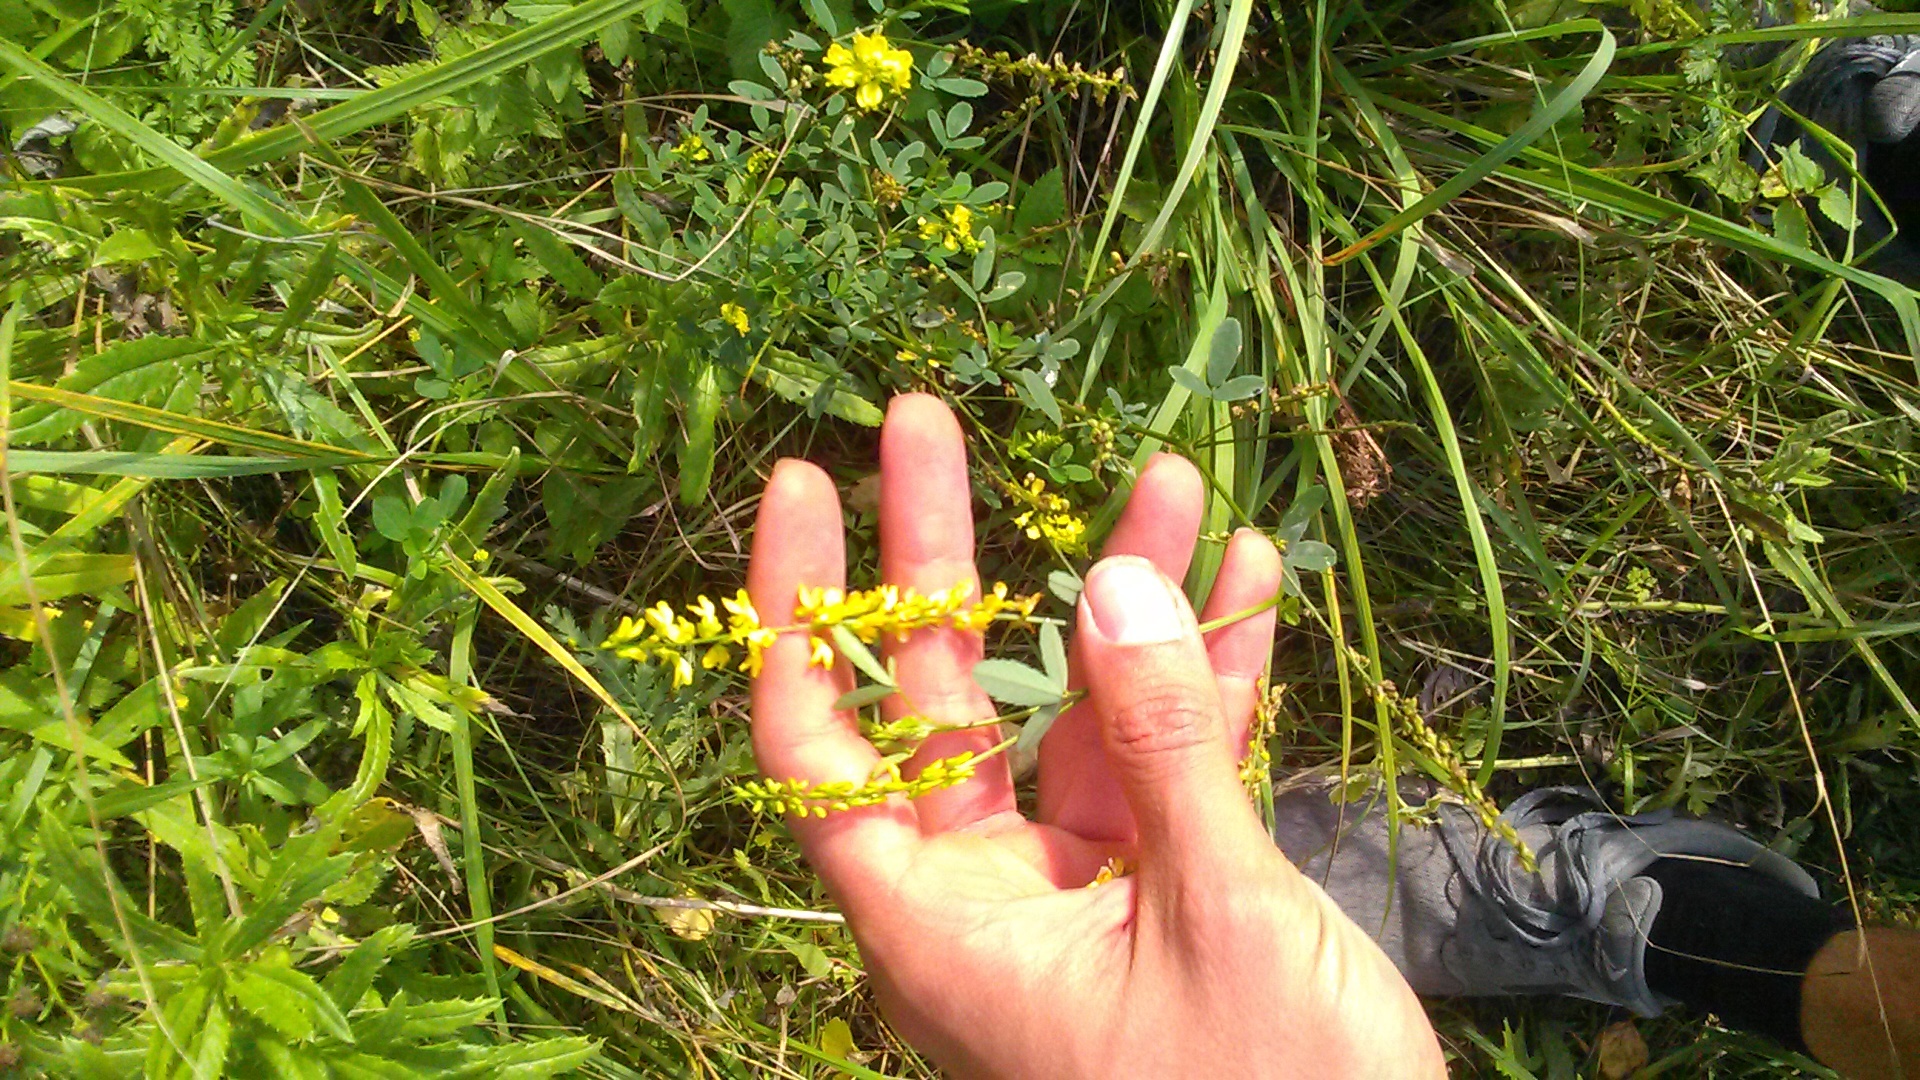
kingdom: Plantae
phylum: Tracheophyta
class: Magnoliopsida
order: Fabales
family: Fabaceae
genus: Melilotus
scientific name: Melilotus officinalis
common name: Sweetclover
